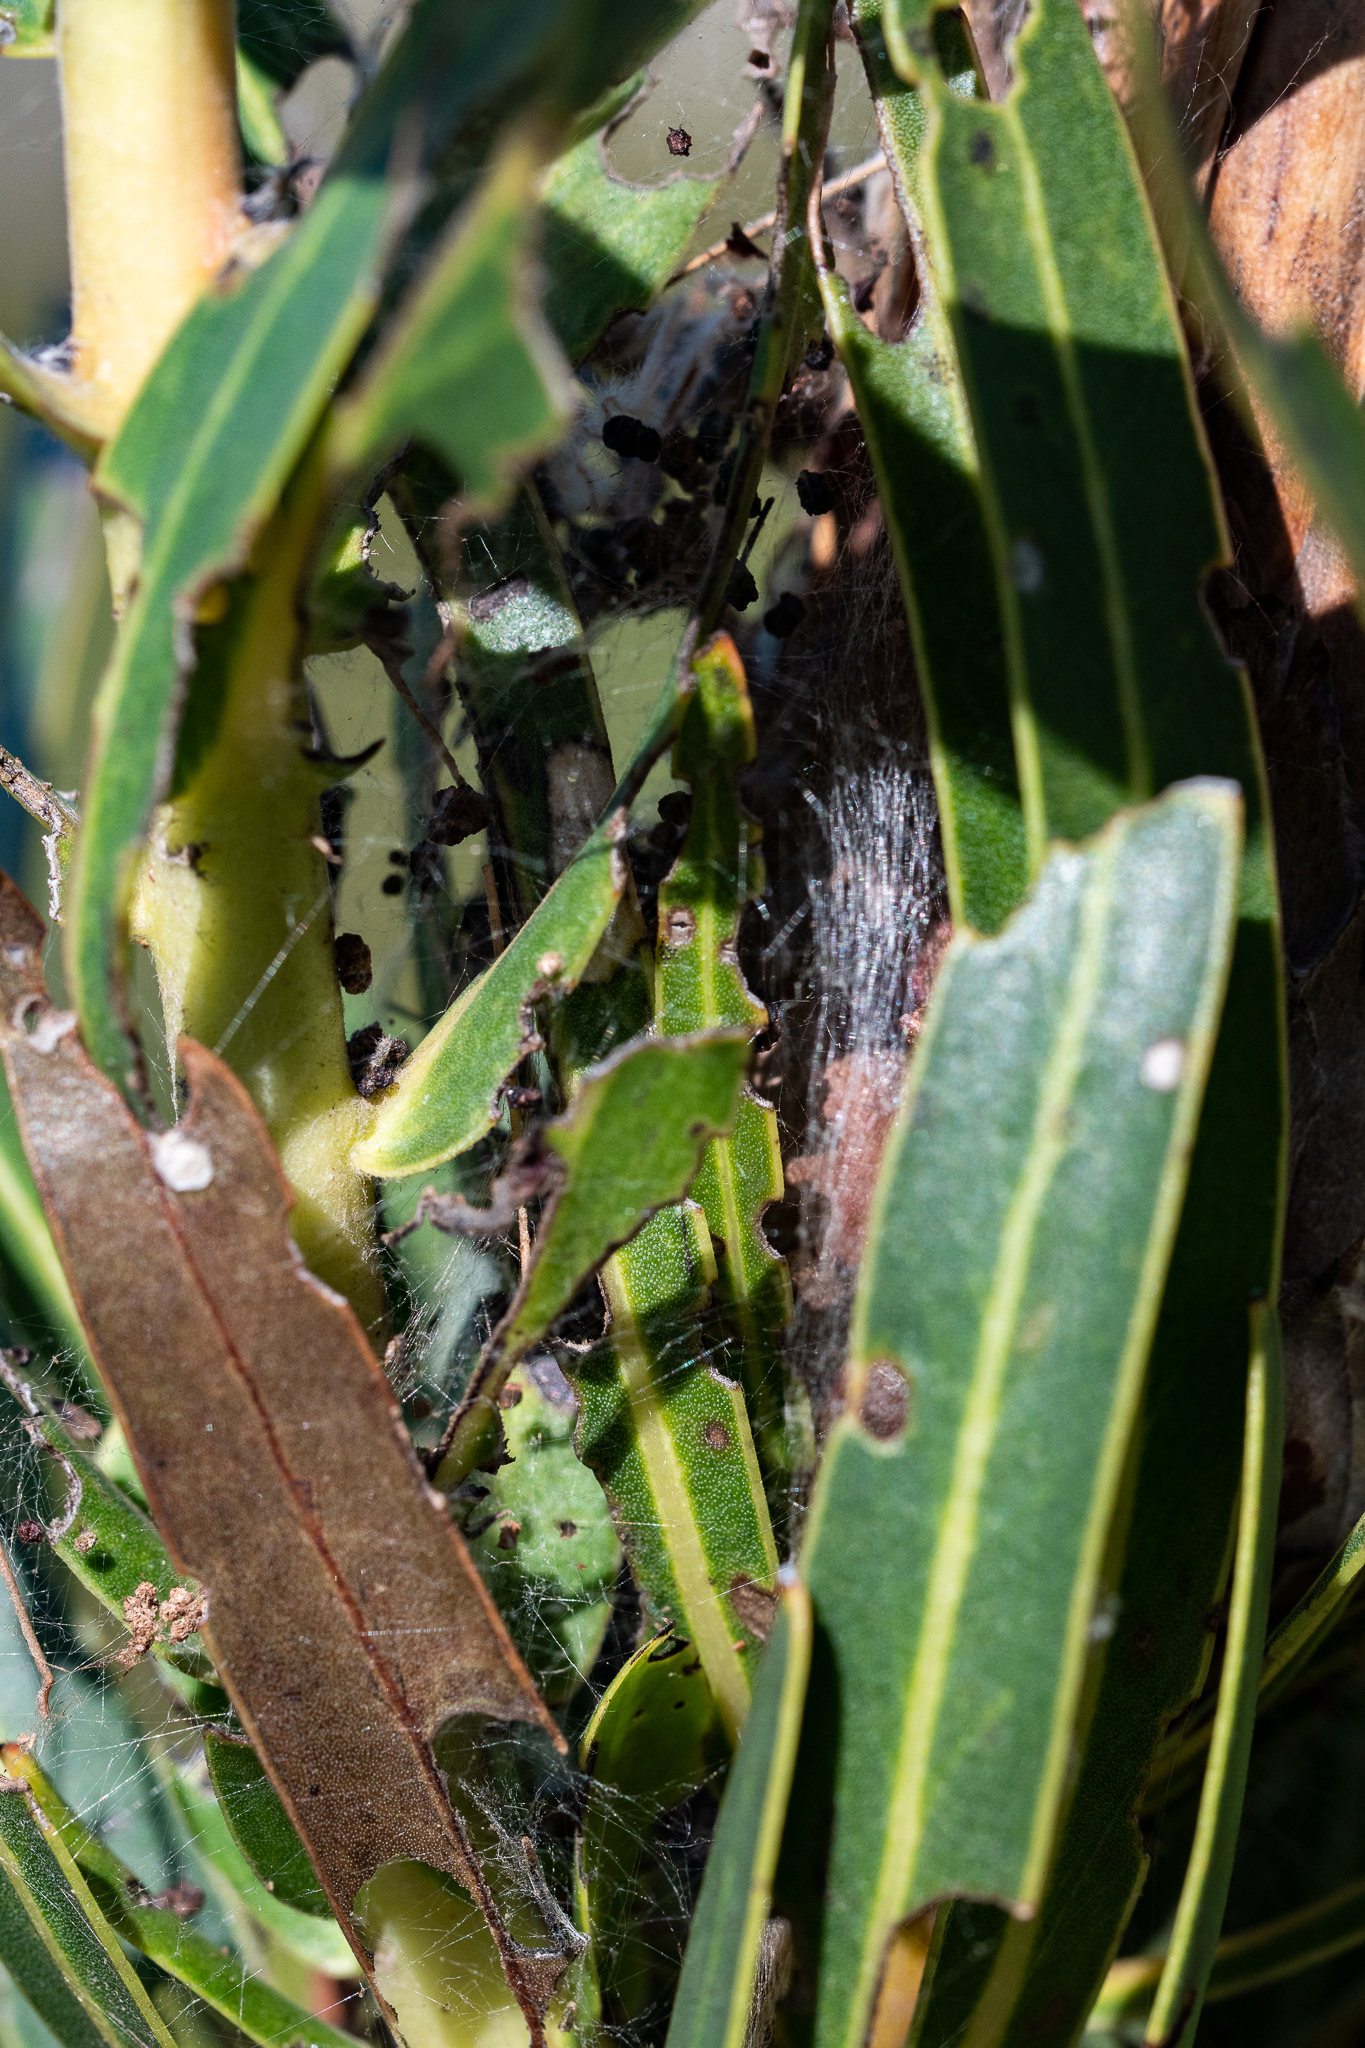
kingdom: Plantae
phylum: Tracheophyta
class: Magnoliopsida
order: Proteales
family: Proteaceae
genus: Protea
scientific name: Protea lepidocarpodendron
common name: Black-bearded protea
